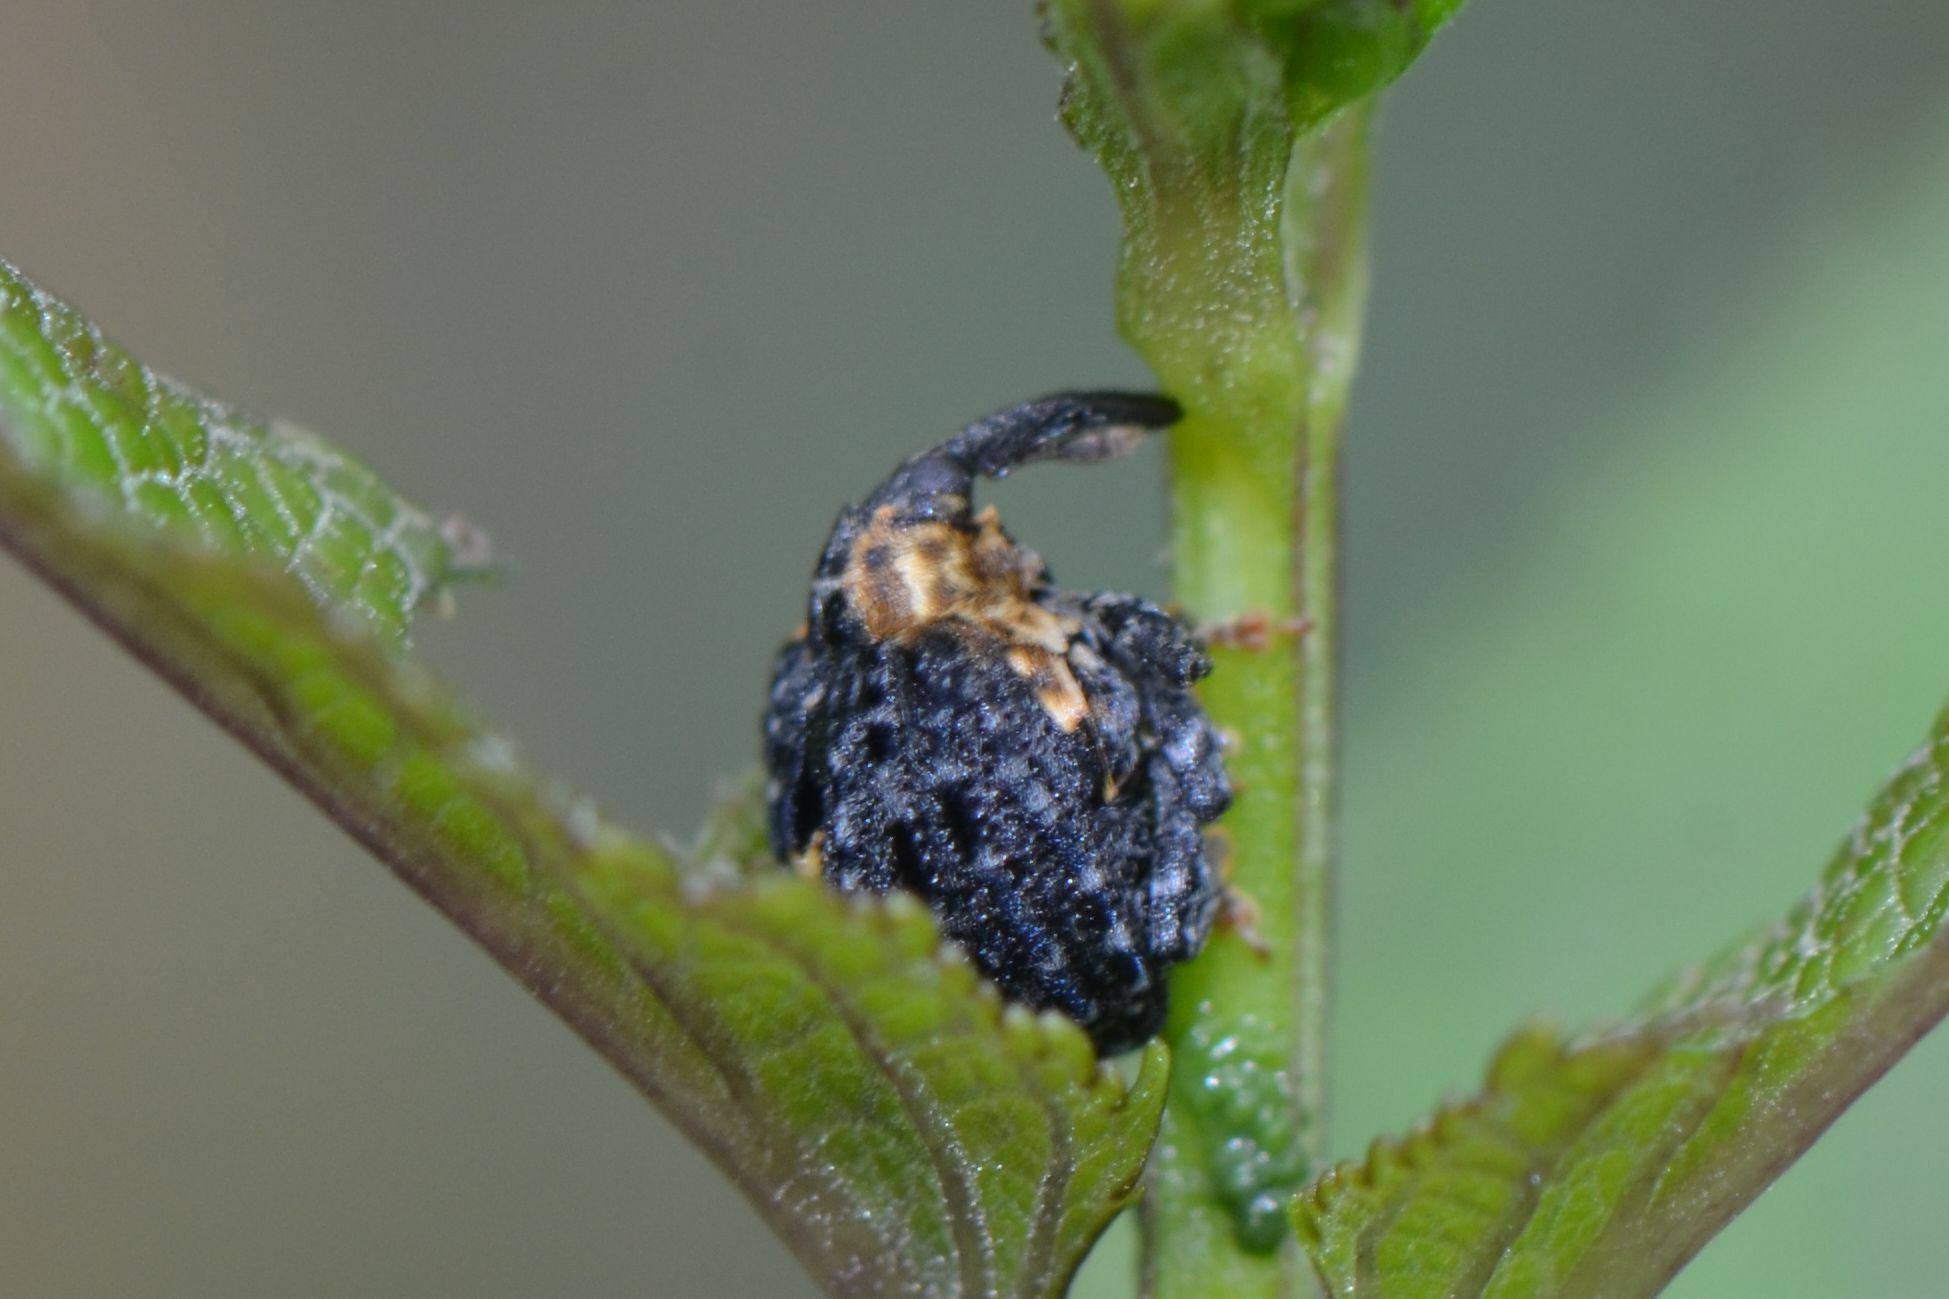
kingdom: Animalia
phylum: Arthropoda
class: Insecta
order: Coleoptera
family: Curculionidae
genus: Cionus
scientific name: Cionus tuberculosus
